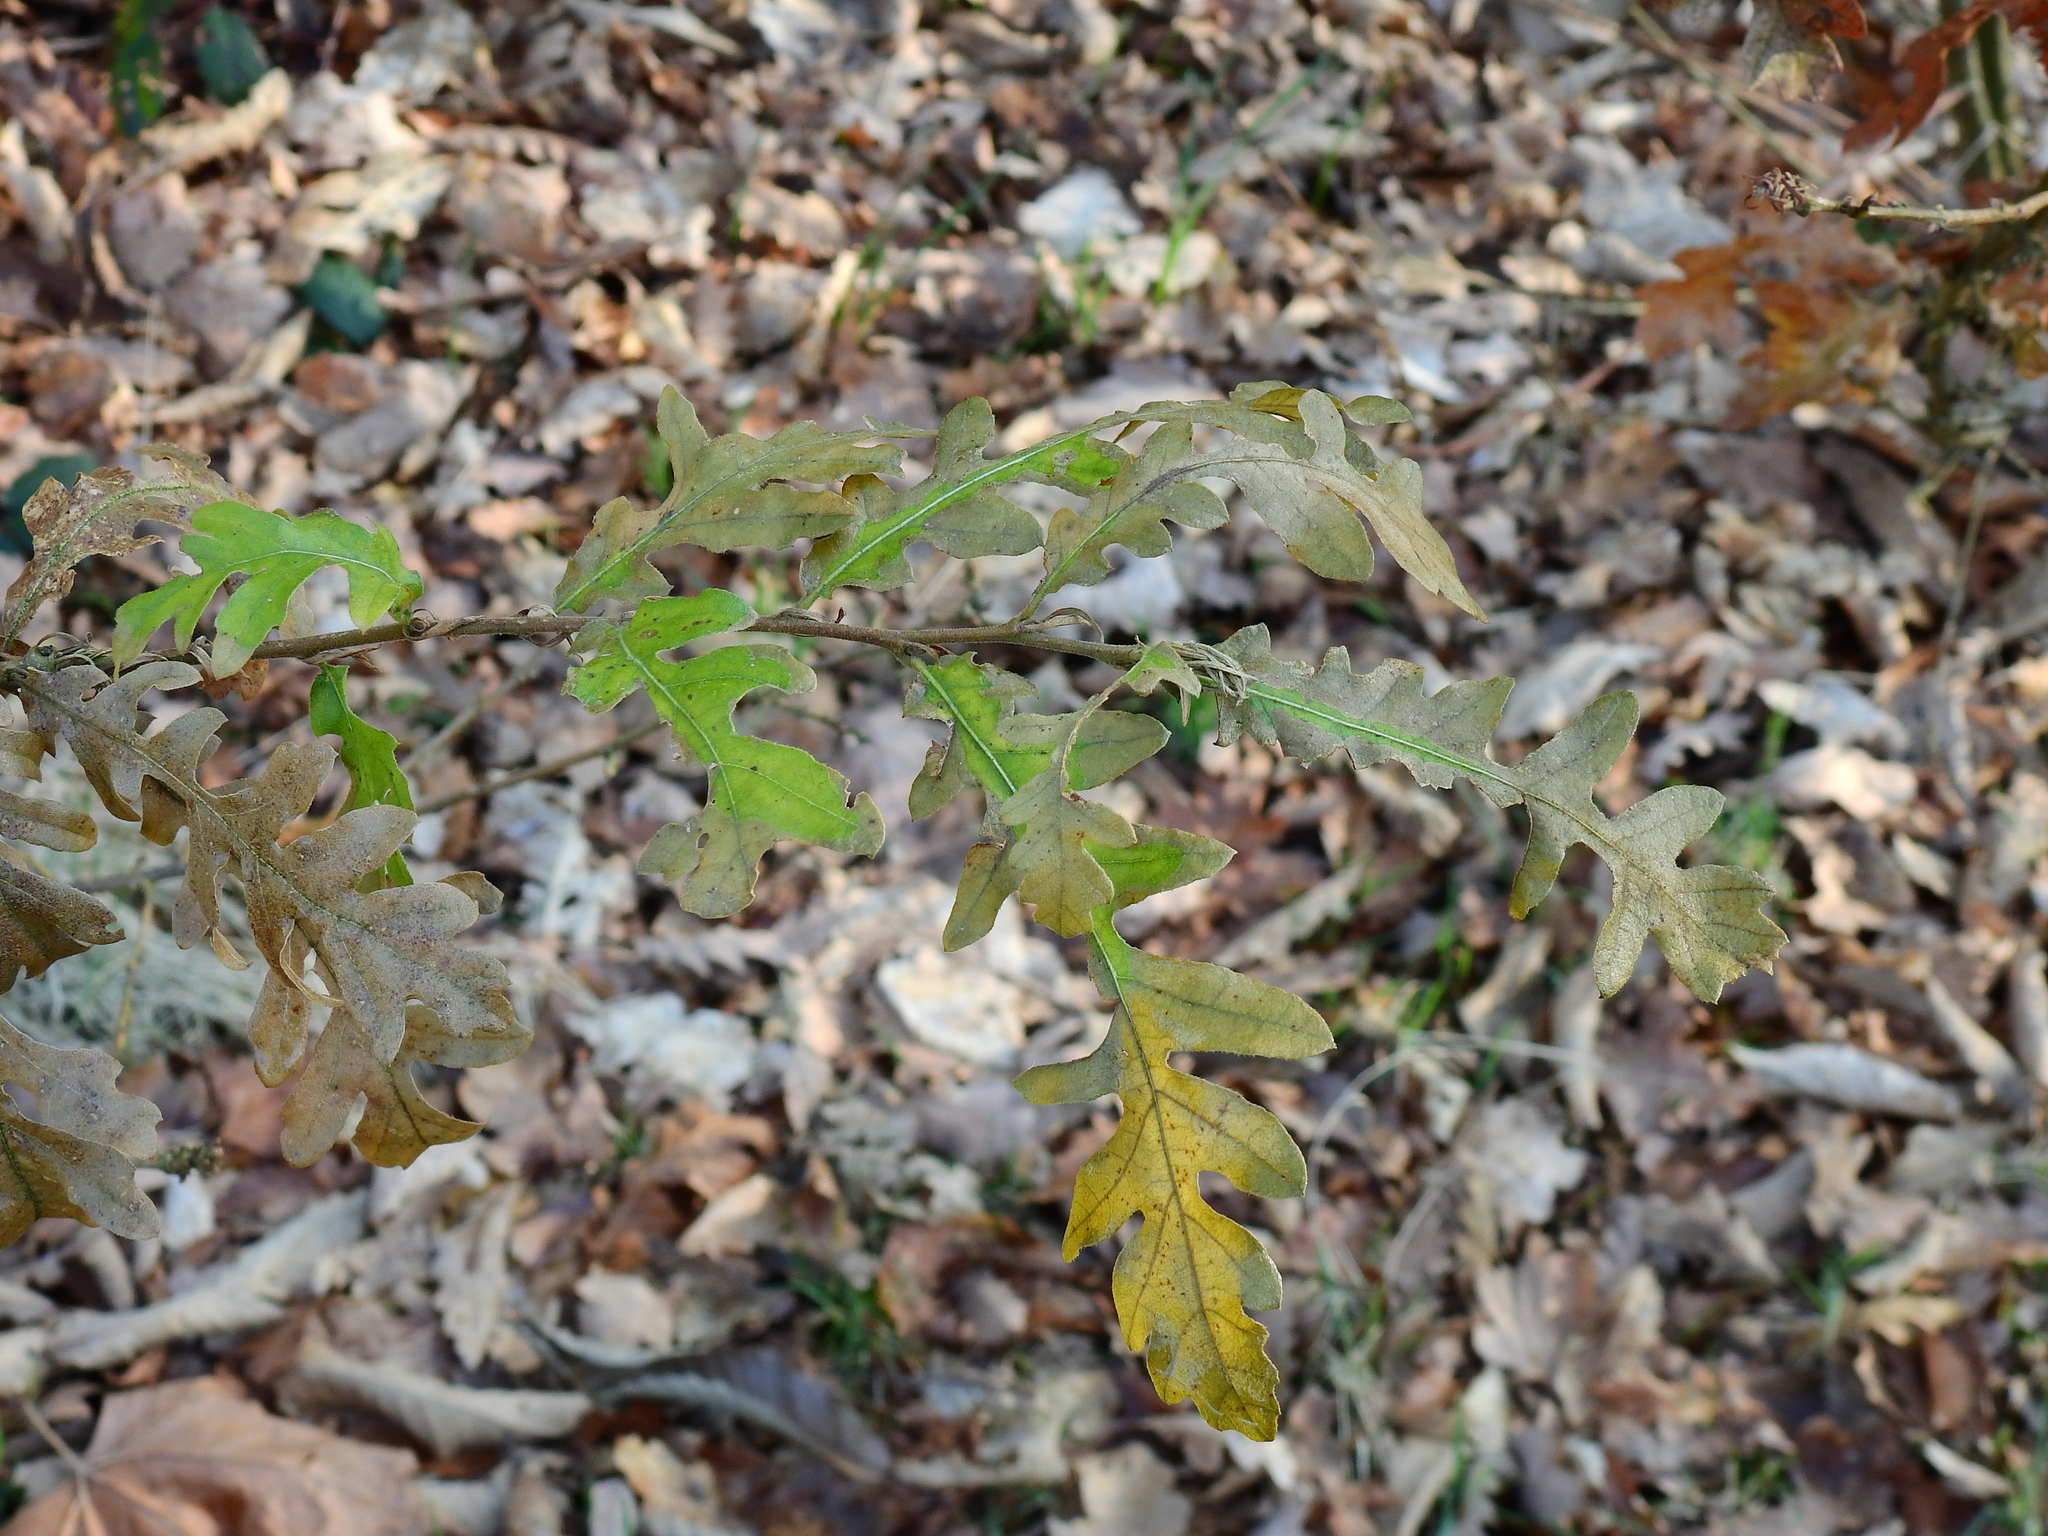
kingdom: Plantae
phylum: Tracheophyta
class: Magnoliopsida
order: Fagales
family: Fagaceae
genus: Quercus
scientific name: Quercus cerris
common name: Turkey oak
